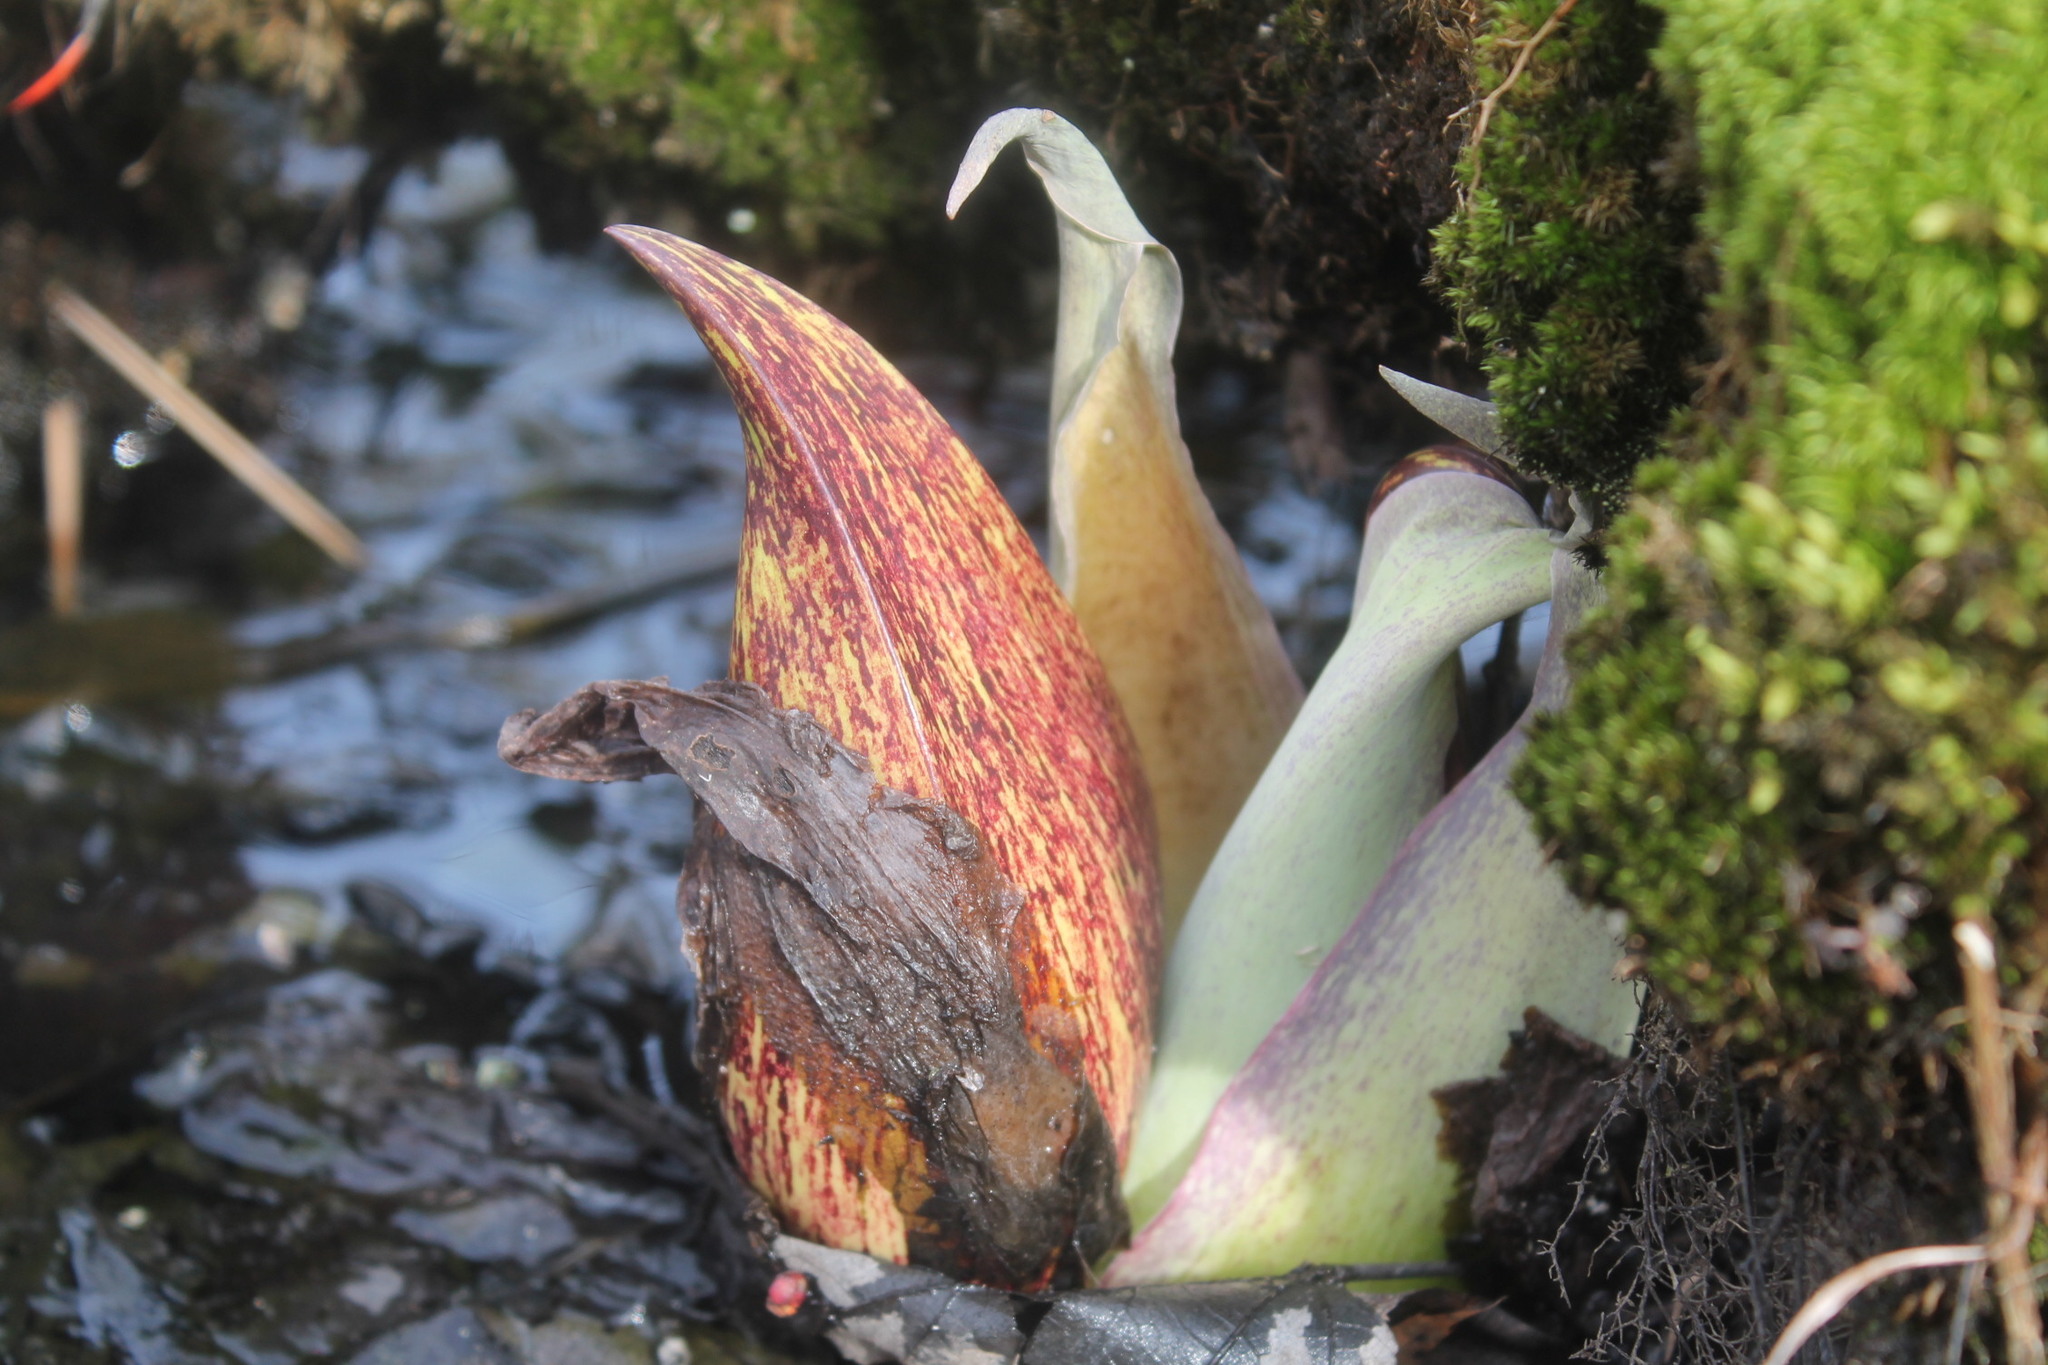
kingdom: Plantae
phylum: Tracheophyta
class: Liliopsida
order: Alismatales
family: Araceae
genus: Symplocarpus
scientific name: Symplocarpus foetidus
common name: Eastern skunk cabbage
